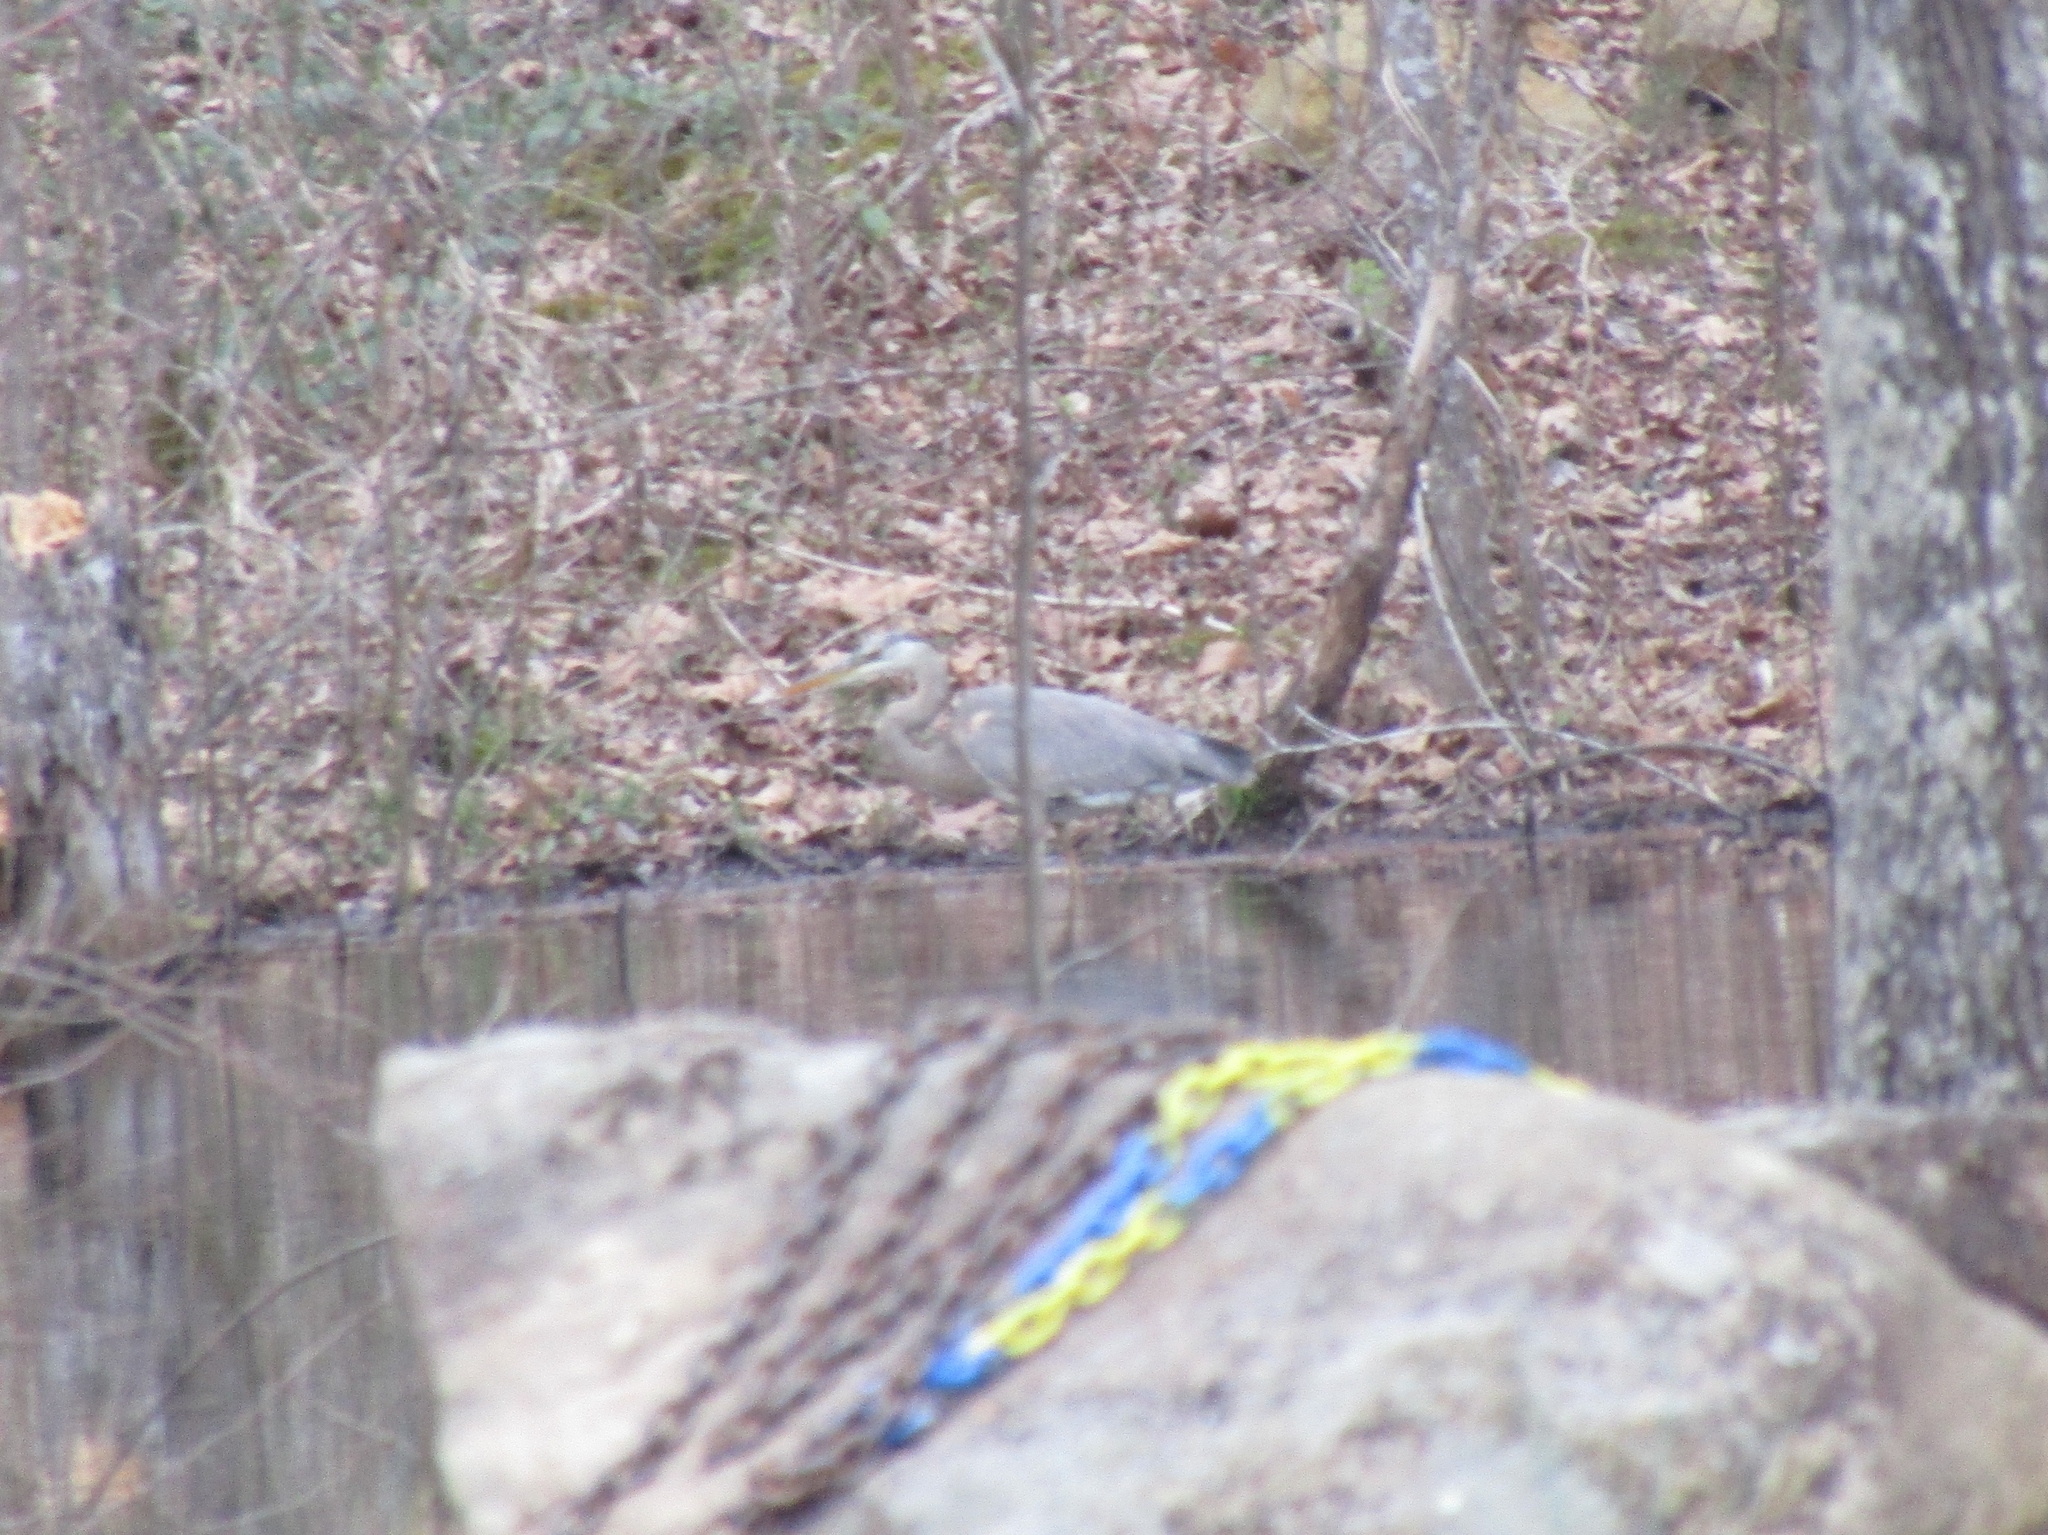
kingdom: Animalia
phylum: Chordata
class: Aves
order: Pelecaniformes
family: Ardeidae
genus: Ardea
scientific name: Ardea herodias
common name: Great blue heron
